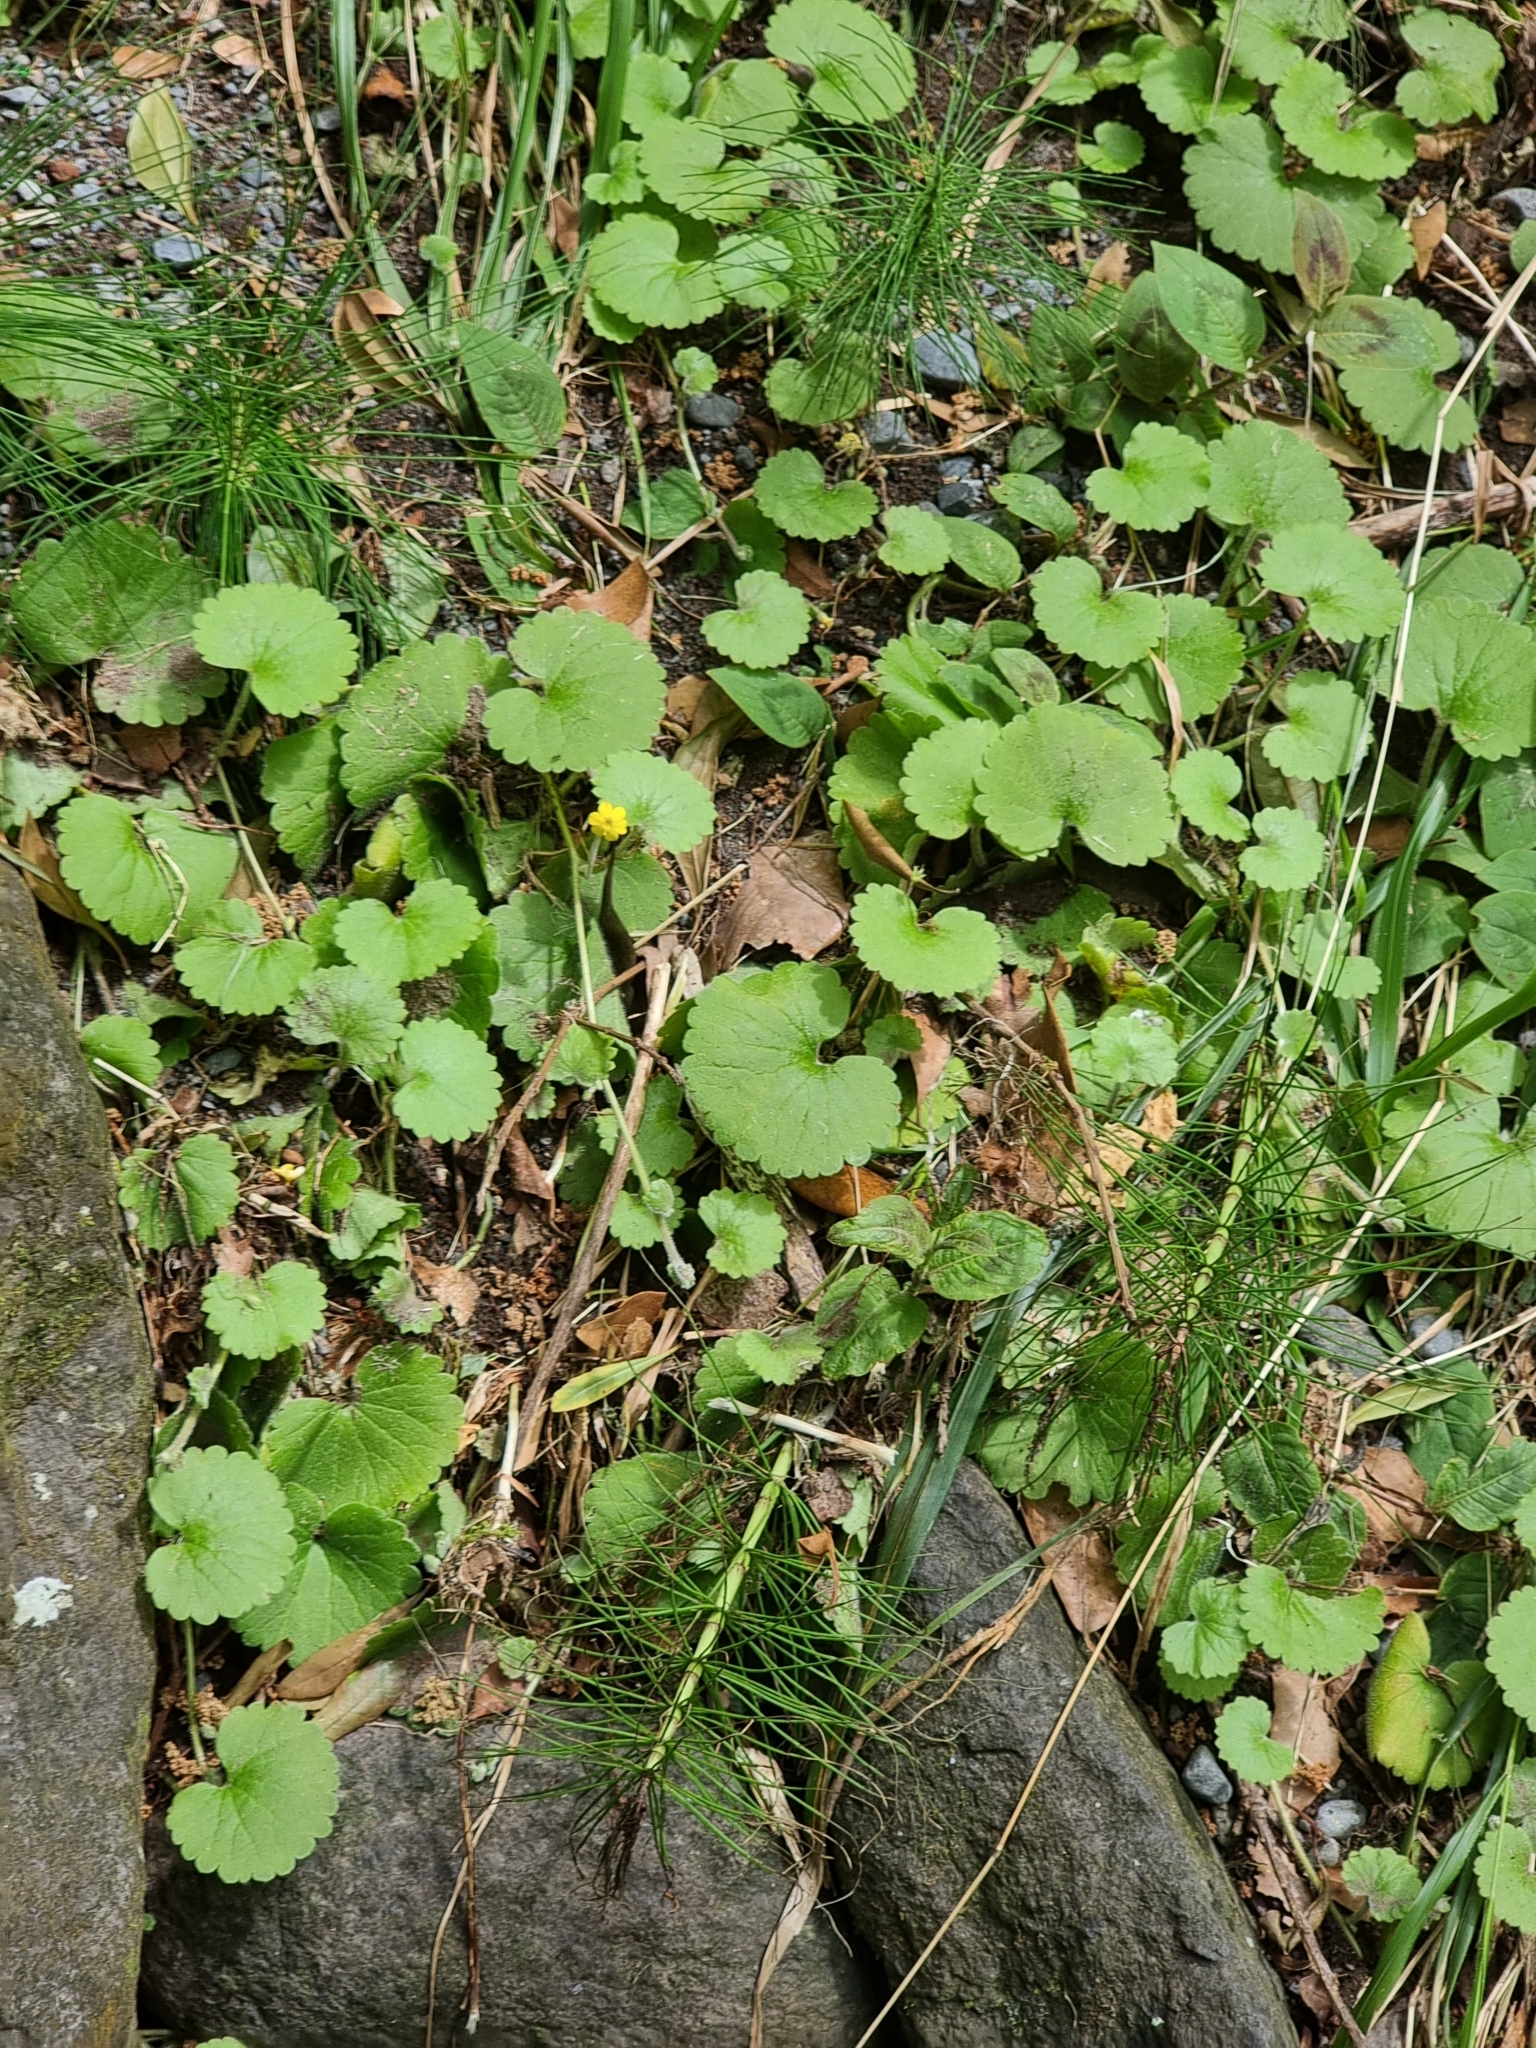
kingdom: Plantae
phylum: Tracheophyta
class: Magnoliopsida
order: Lamiales
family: Plantaginaceae
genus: Sibthorpia
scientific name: Sibthorpia peregrina
